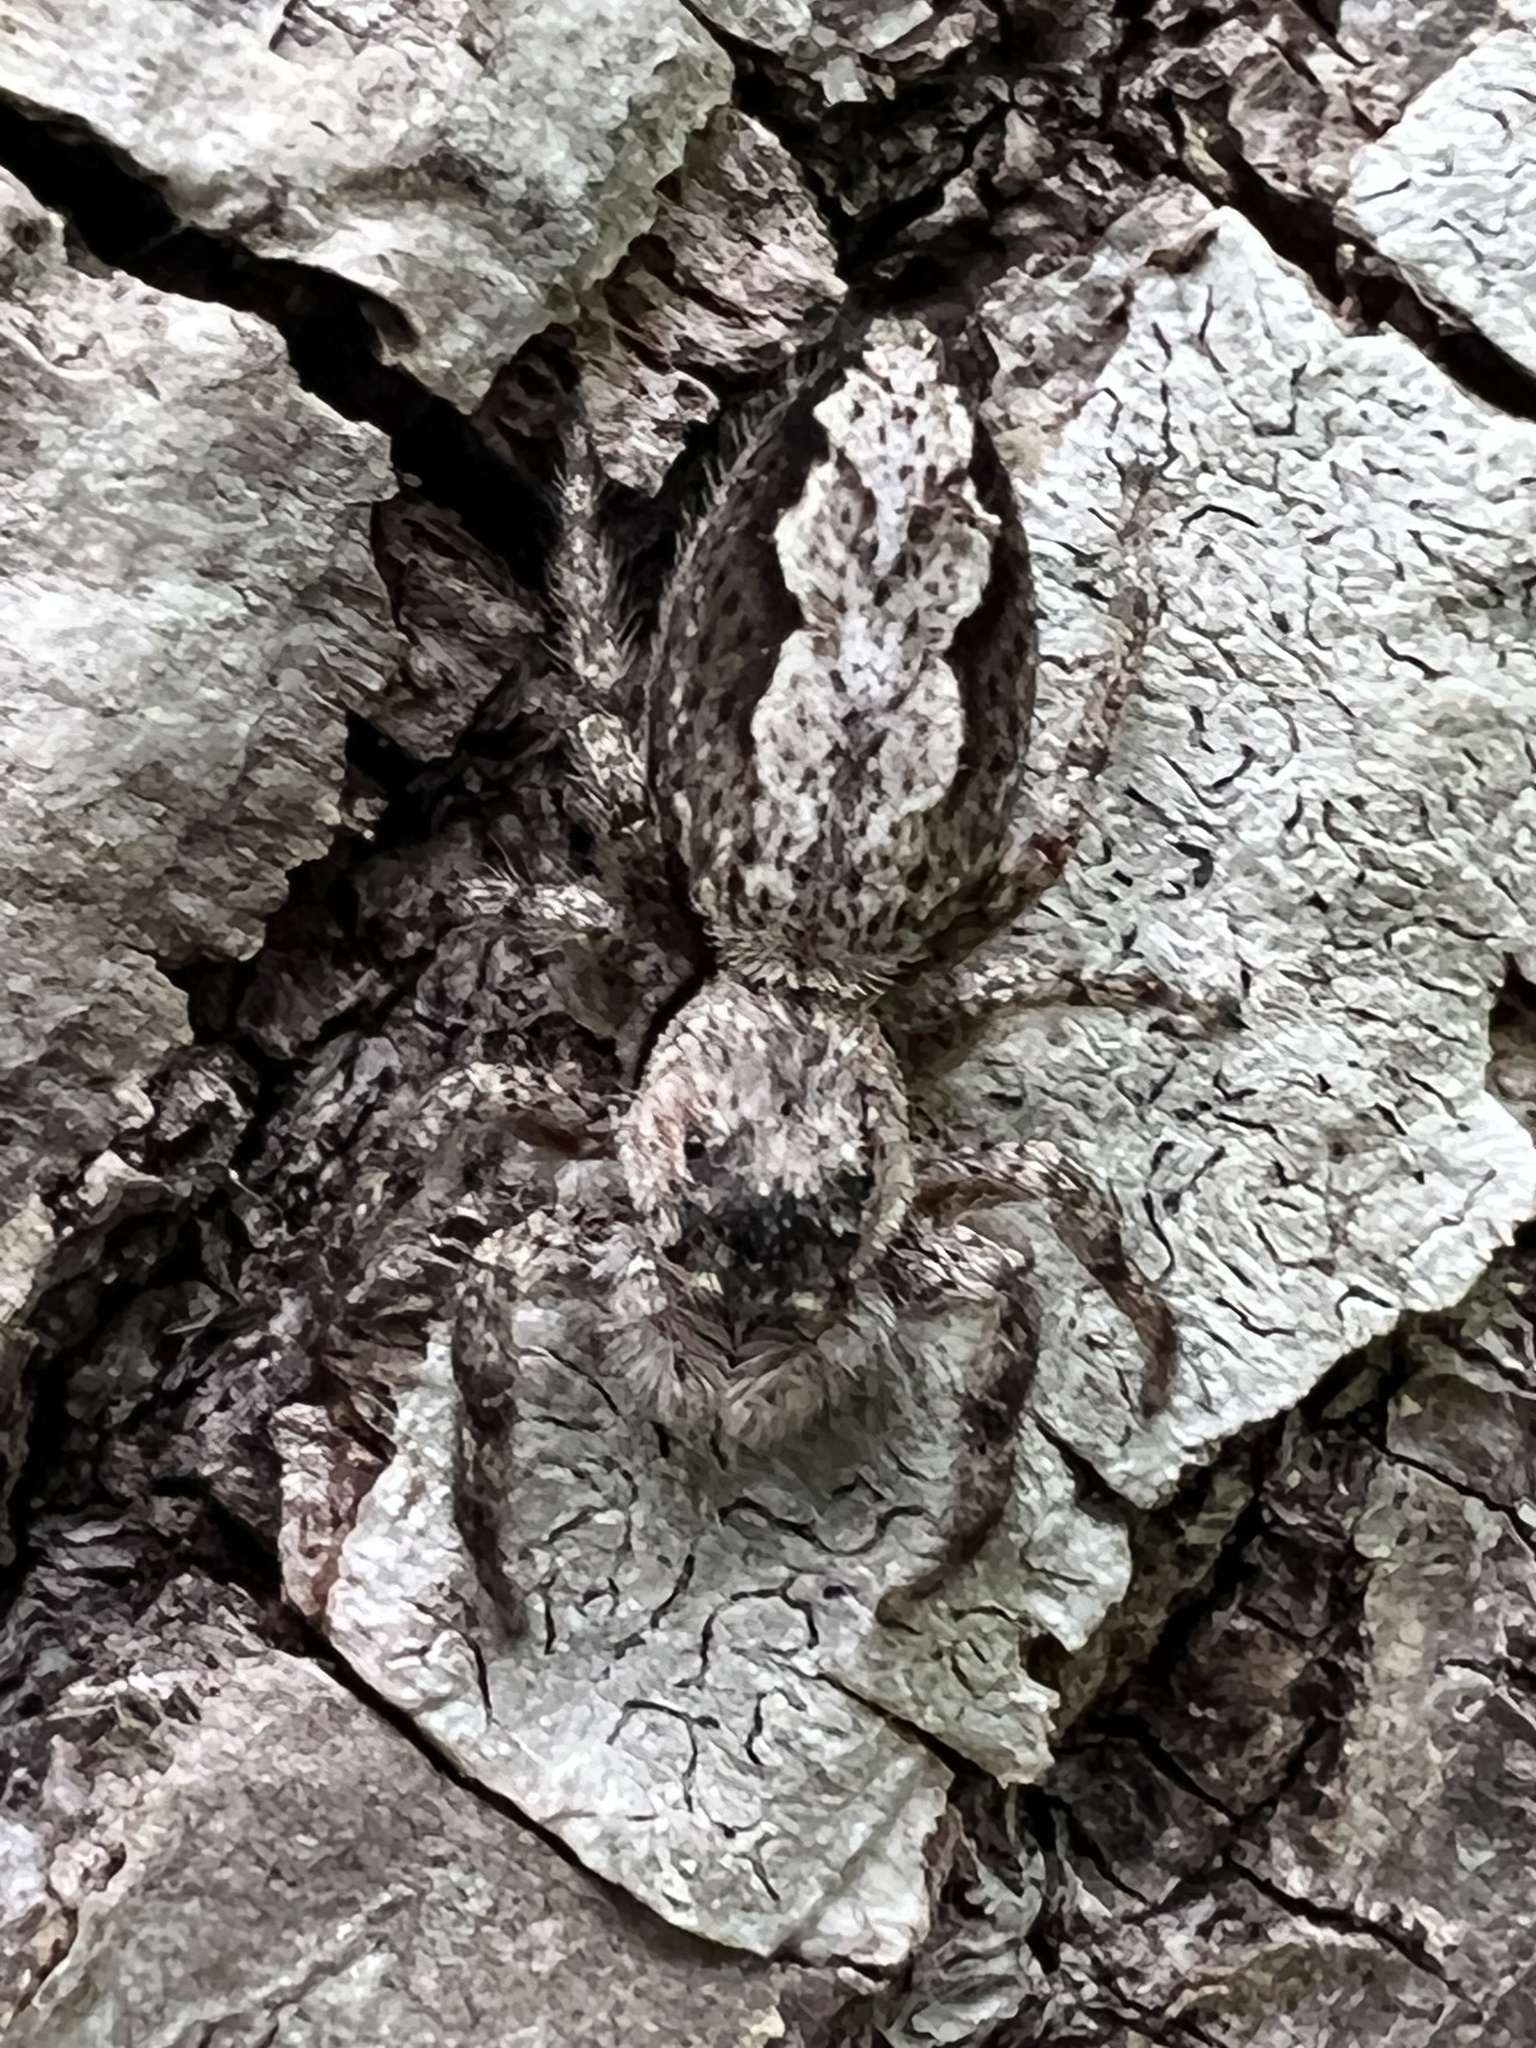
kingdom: Animalia
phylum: Arthropoda
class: Arachnida
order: Araneae
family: Salticidae
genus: Platycryptus
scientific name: Platycryptus undatus
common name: Tan jumping spider
